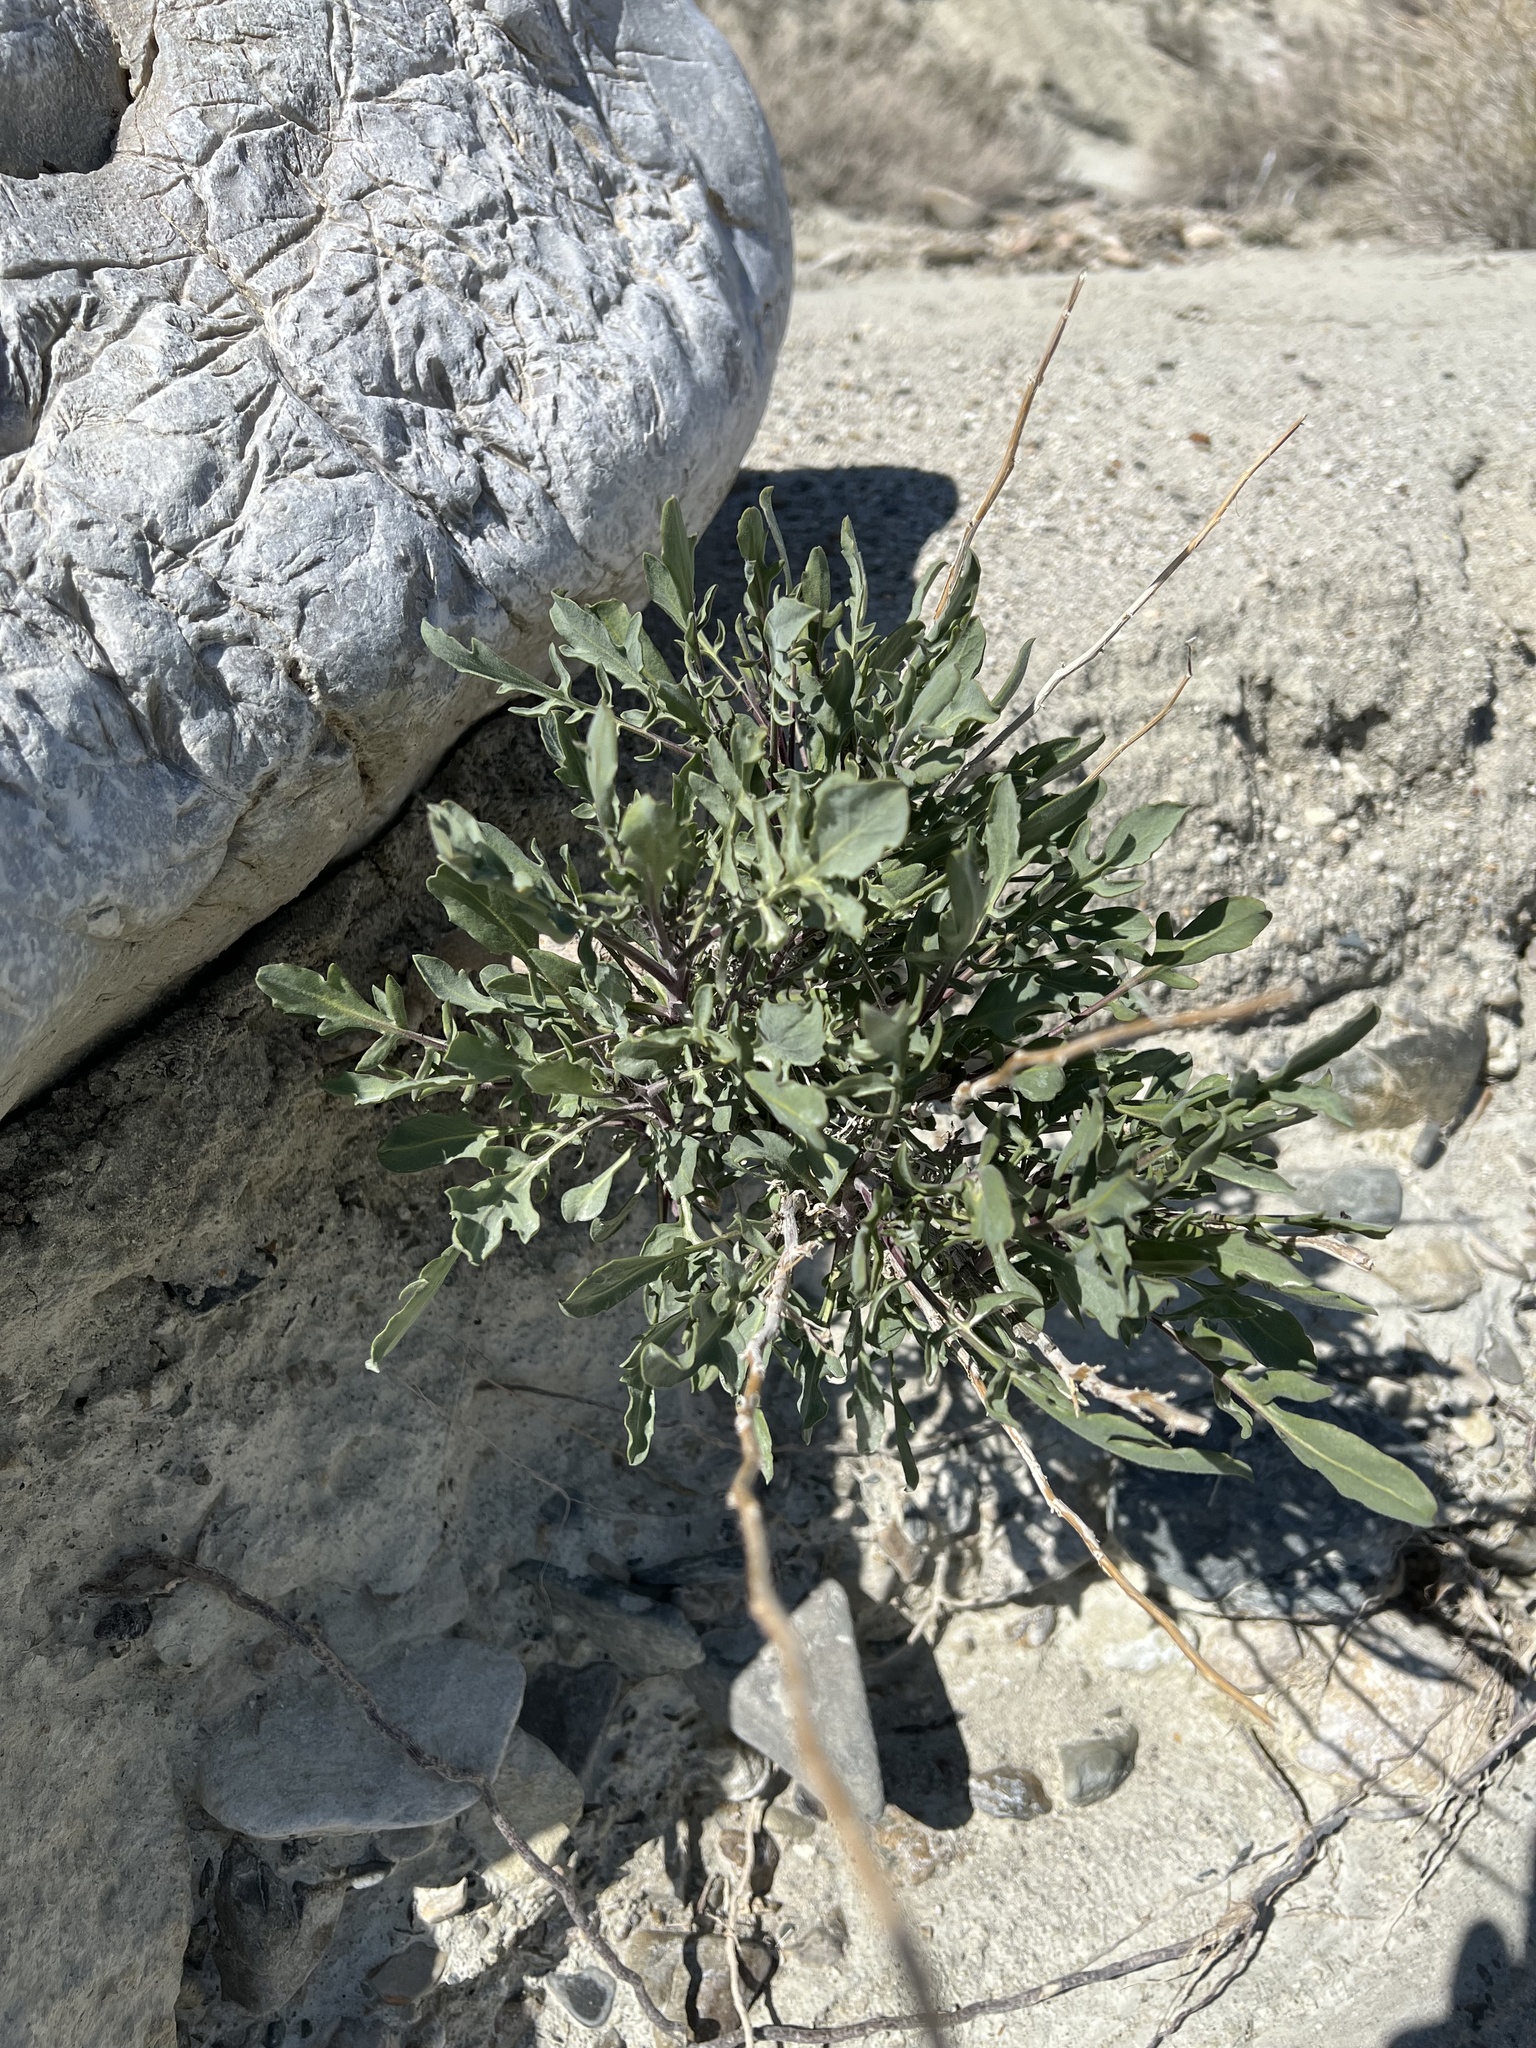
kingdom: Plantae
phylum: Tracheophyta
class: Magnoliopsida
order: Brassicales
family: Brassicaceae
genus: Stanleya
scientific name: Stanleya pinnata
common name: Prince's-plume
